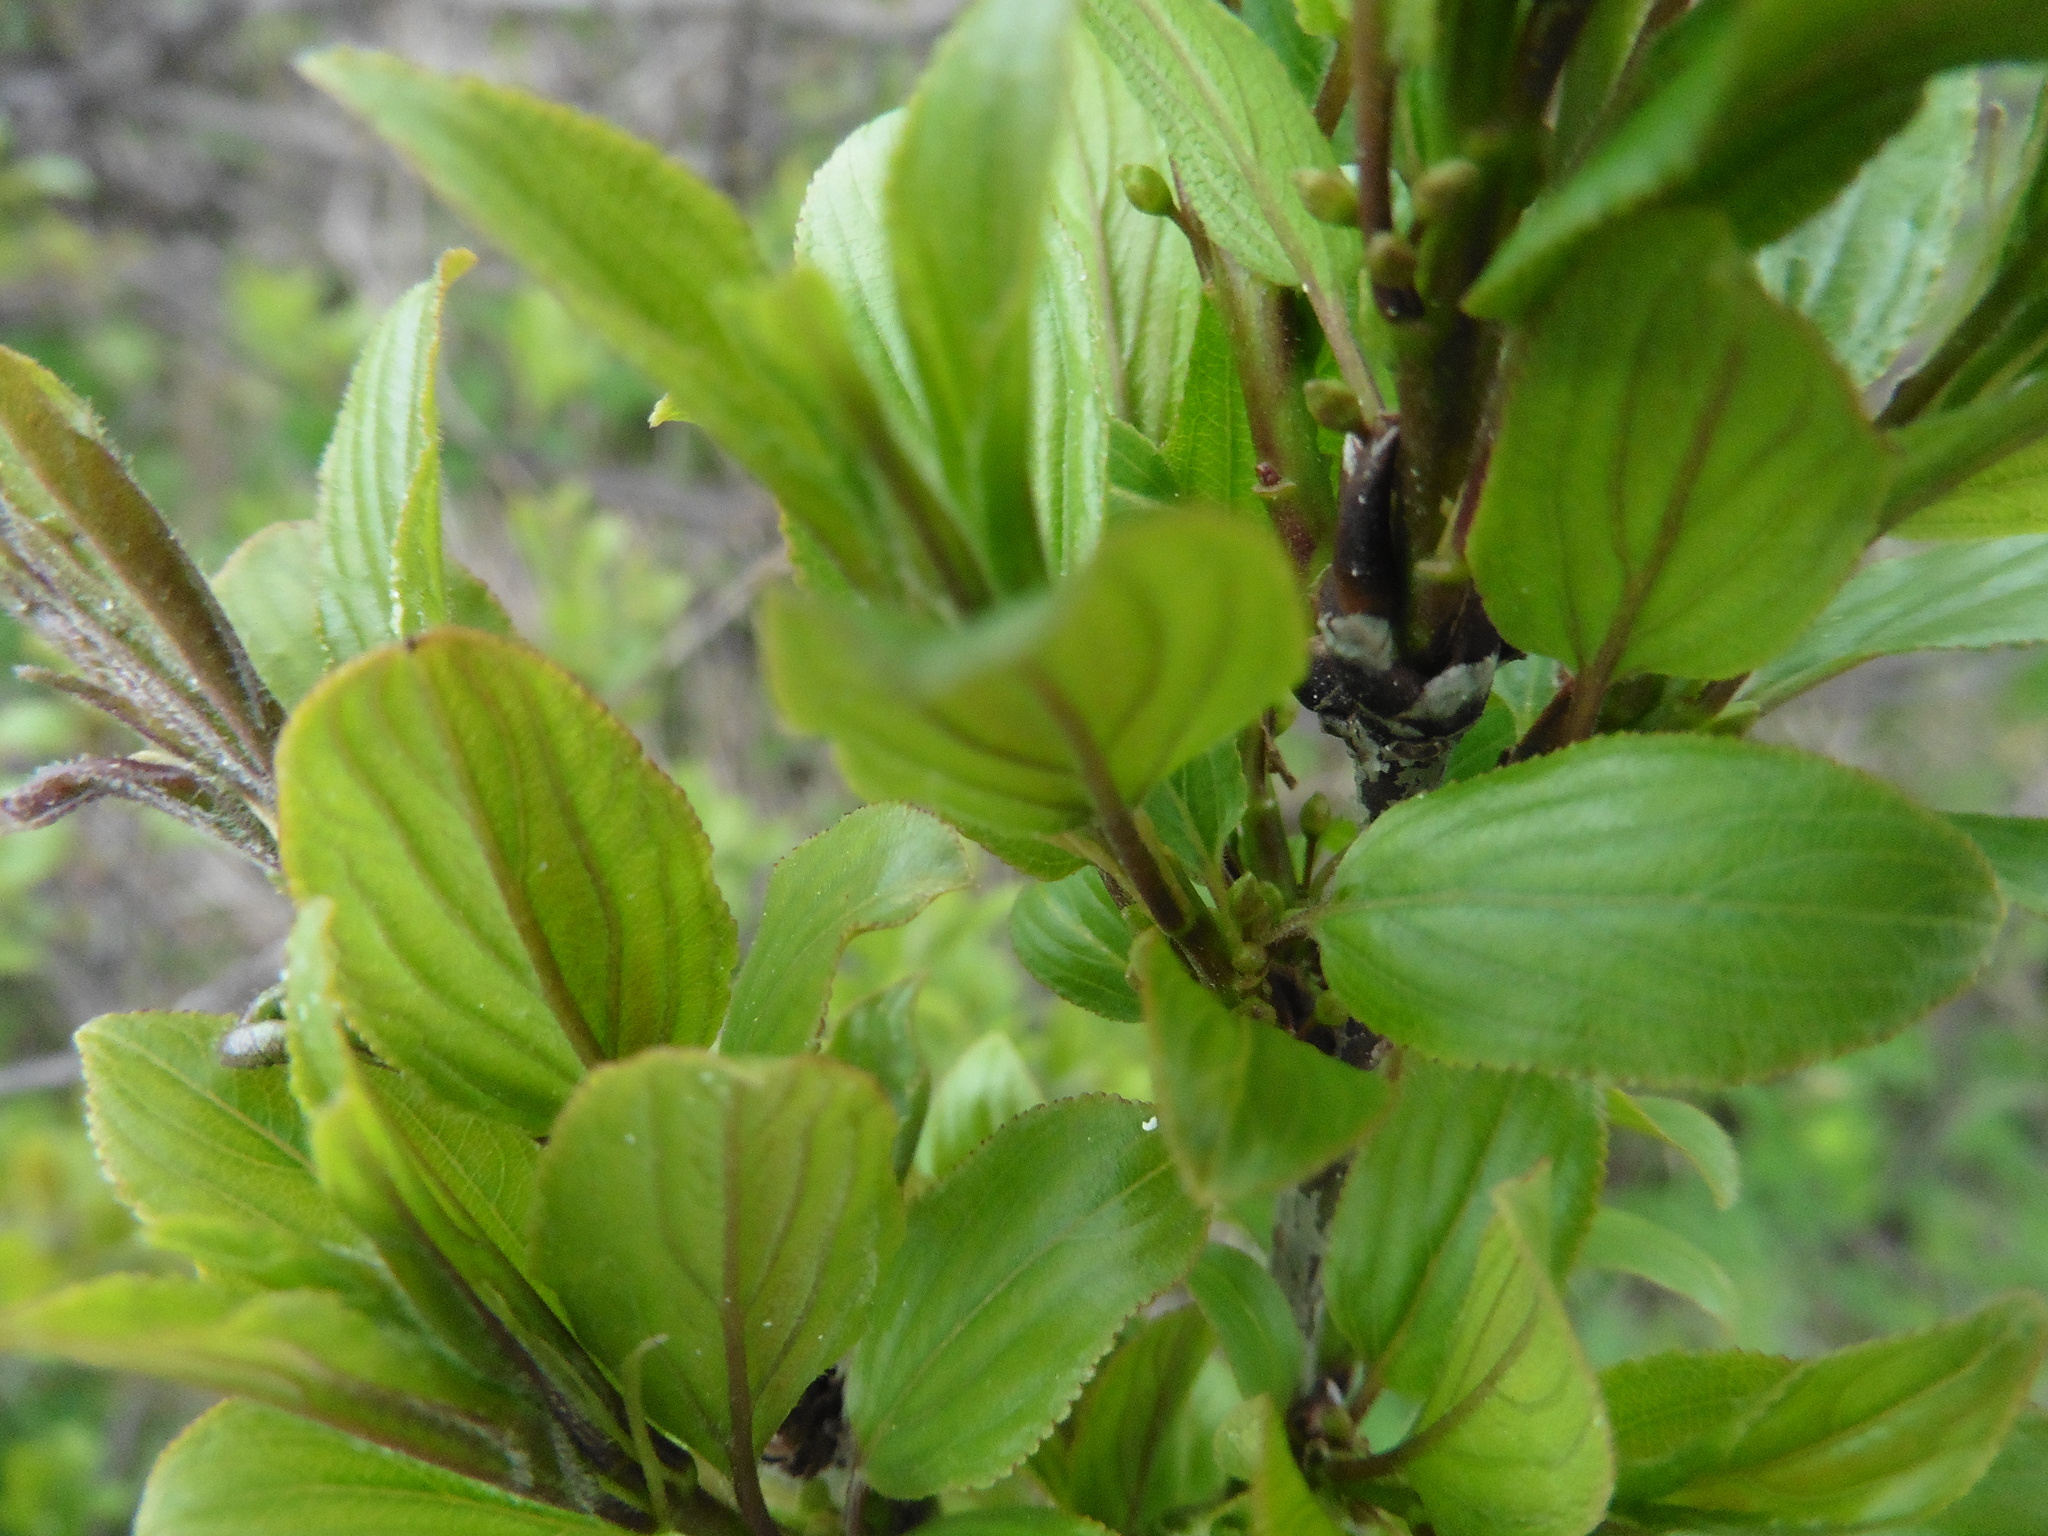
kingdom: Plantae
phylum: Tracheophyta
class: Magnoliopsida
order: Rosales
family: Rhamnaceae
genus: Rhamnus
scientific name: Rhamnus cathartica
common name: Common buckthorn
